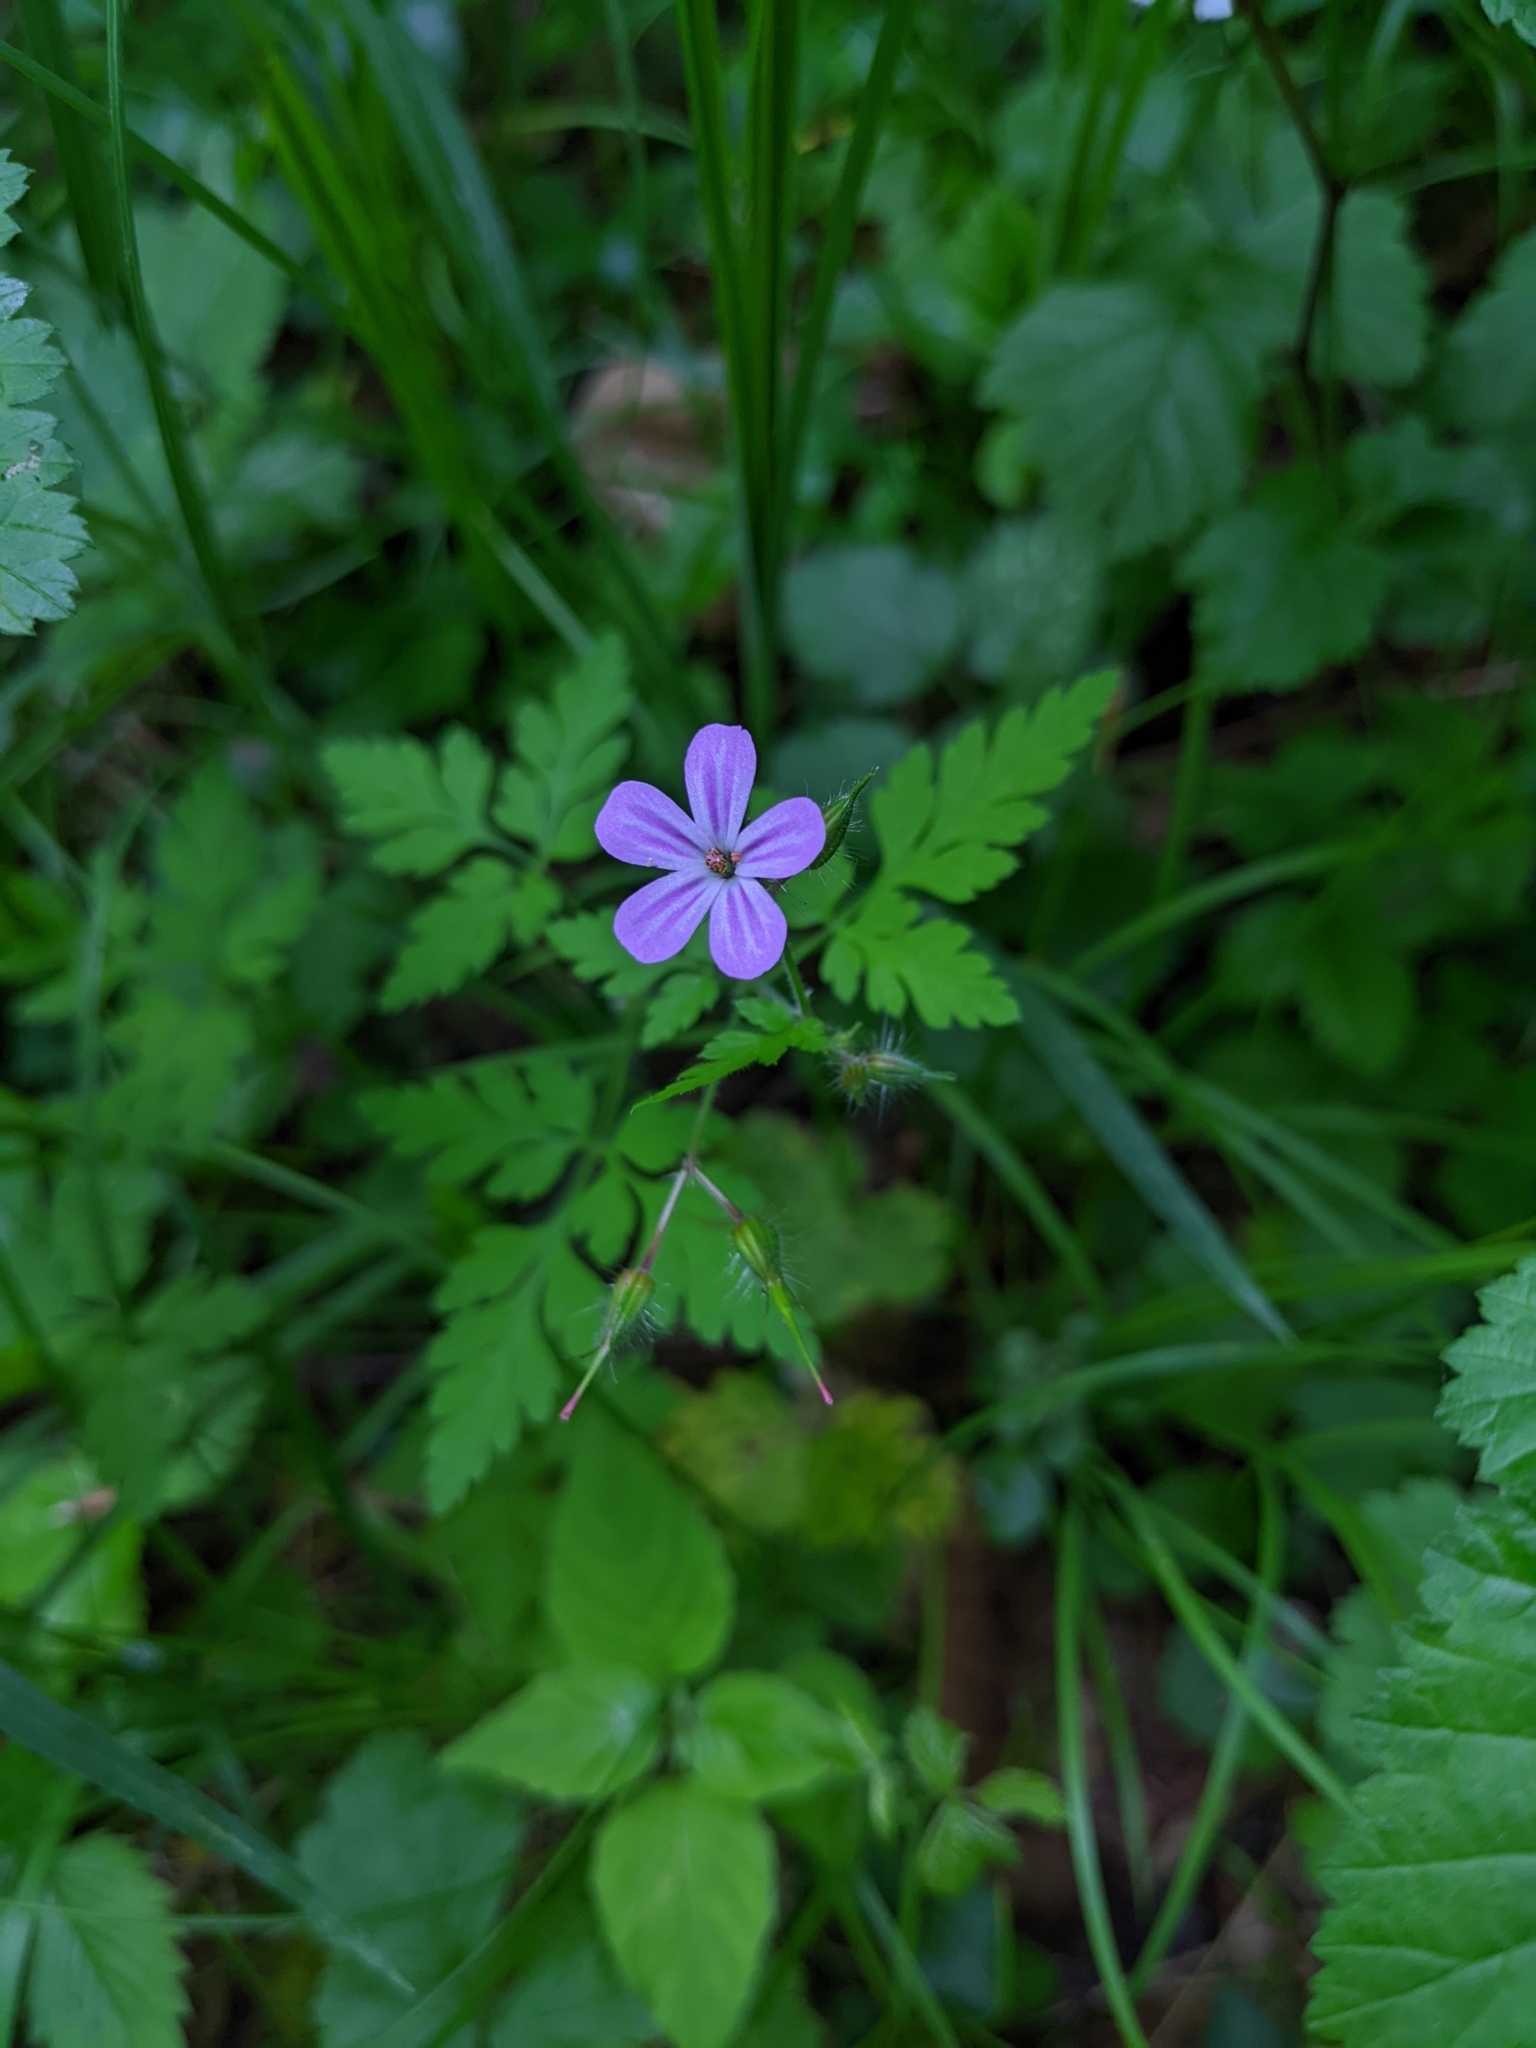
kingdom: Plantae
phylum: Tracheophyta
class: Magnoliopsida
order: Geraniales
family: Geraniaceae
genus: Geranium
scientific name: Geranium robertianum
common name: Herb-robert
